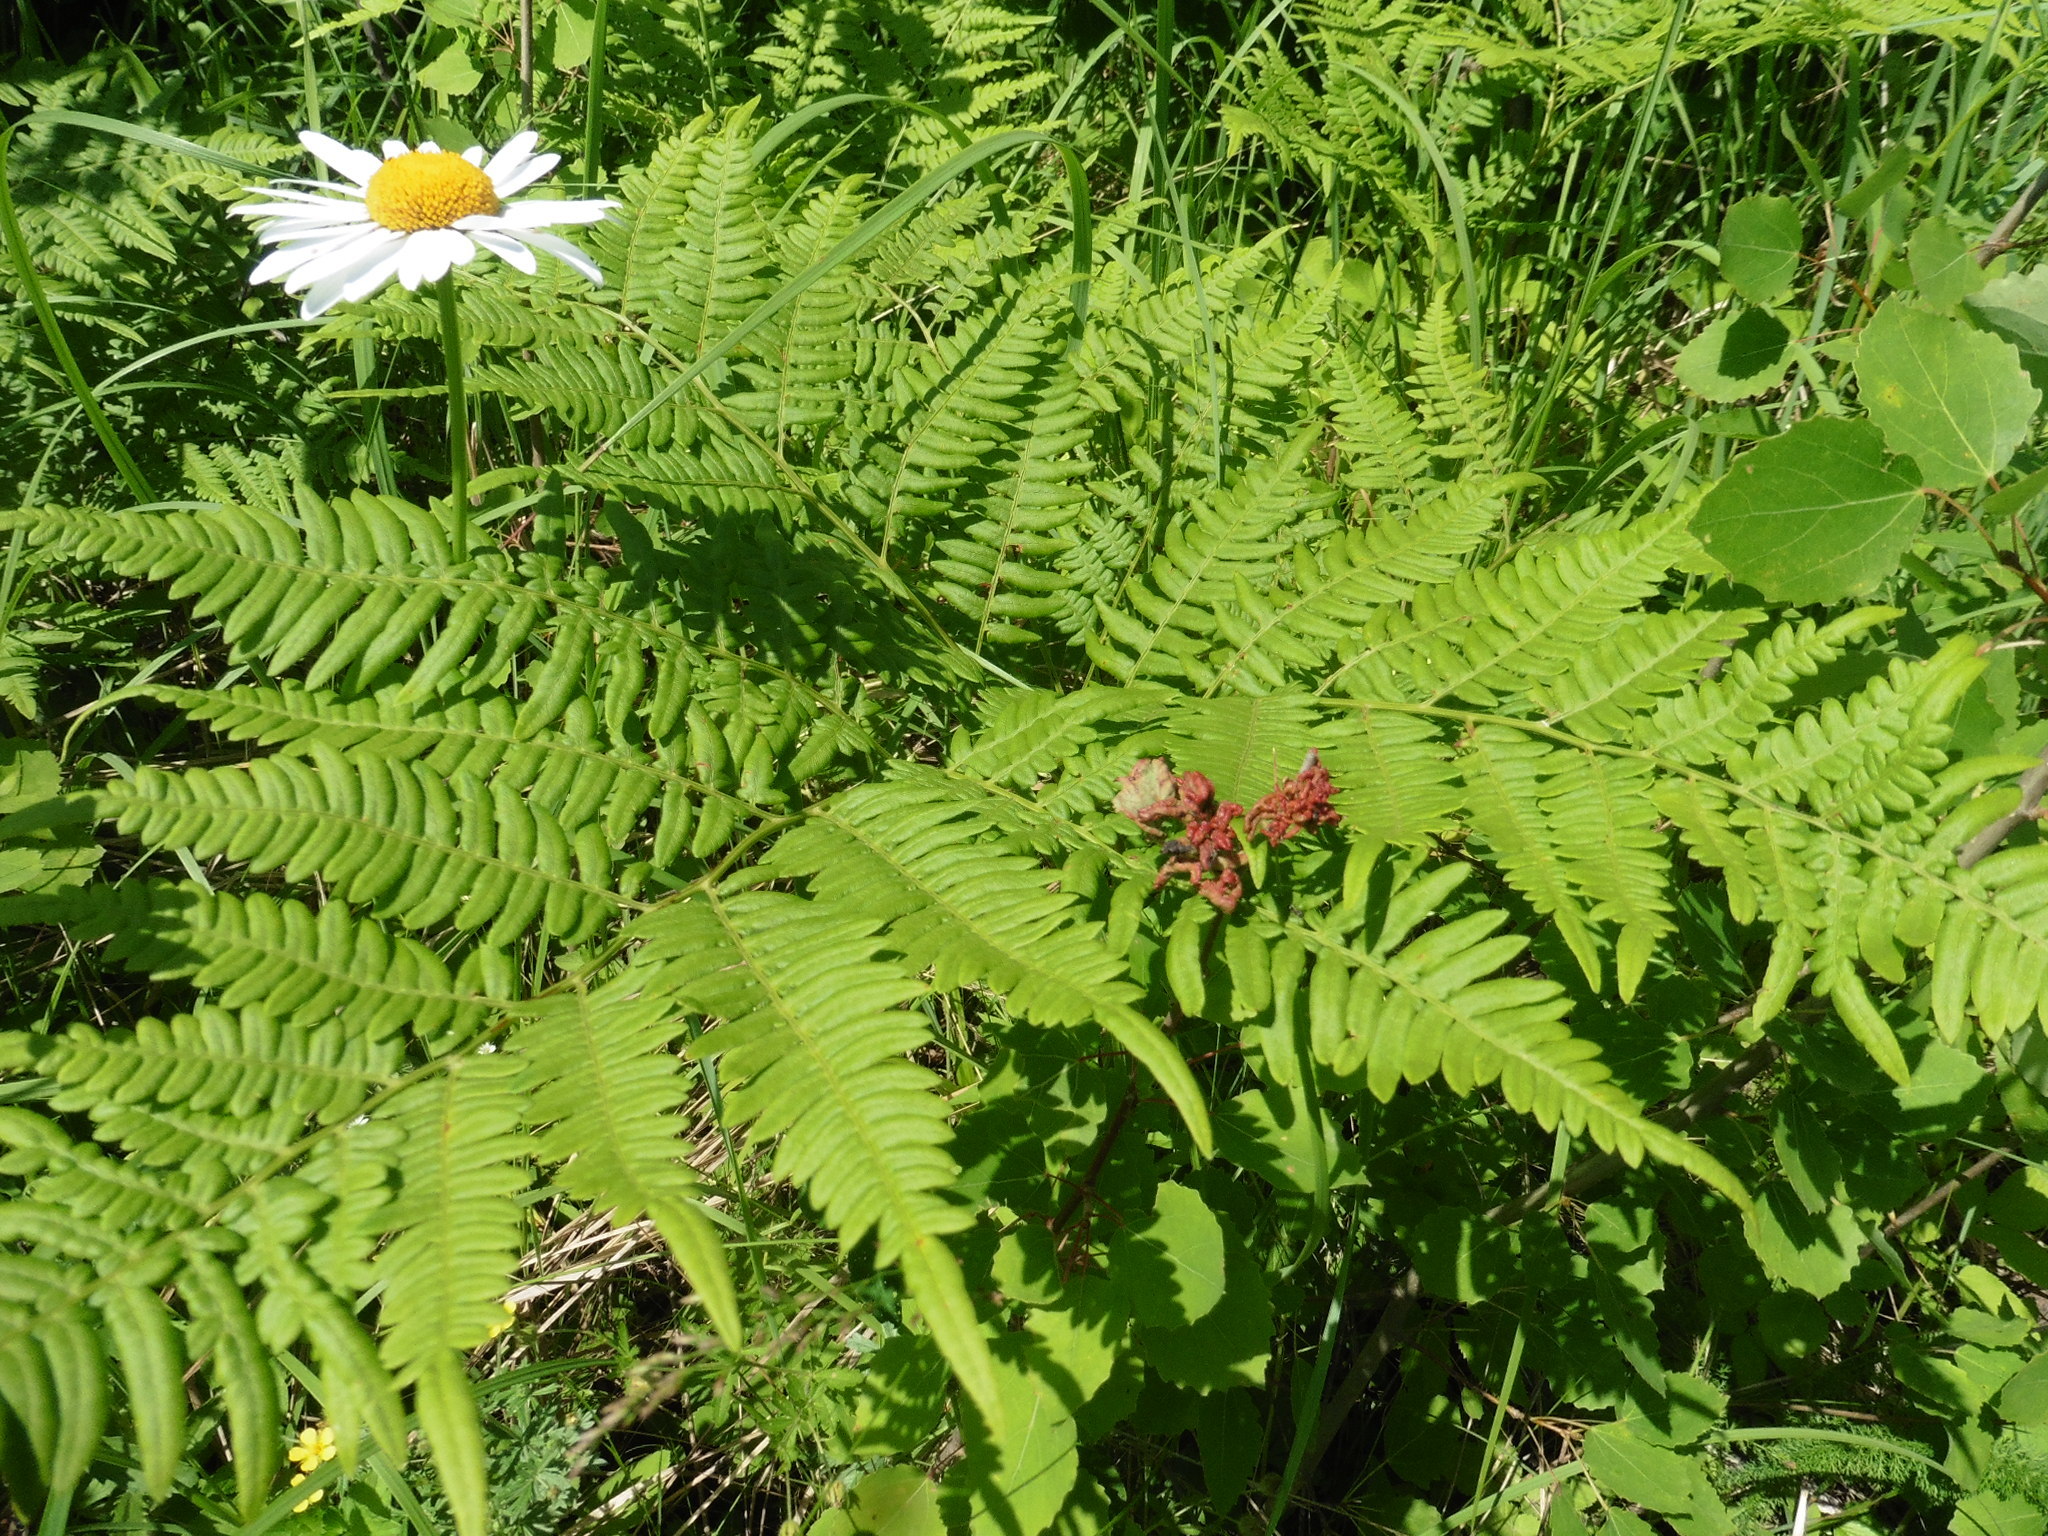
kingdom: Plantae
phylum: Tracheophyta
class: Polypodiopsida
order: Polypodiales
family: Dennstaedtiaceae
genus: Pteridium
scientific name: Pteridium aquilinum
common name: Bracken
